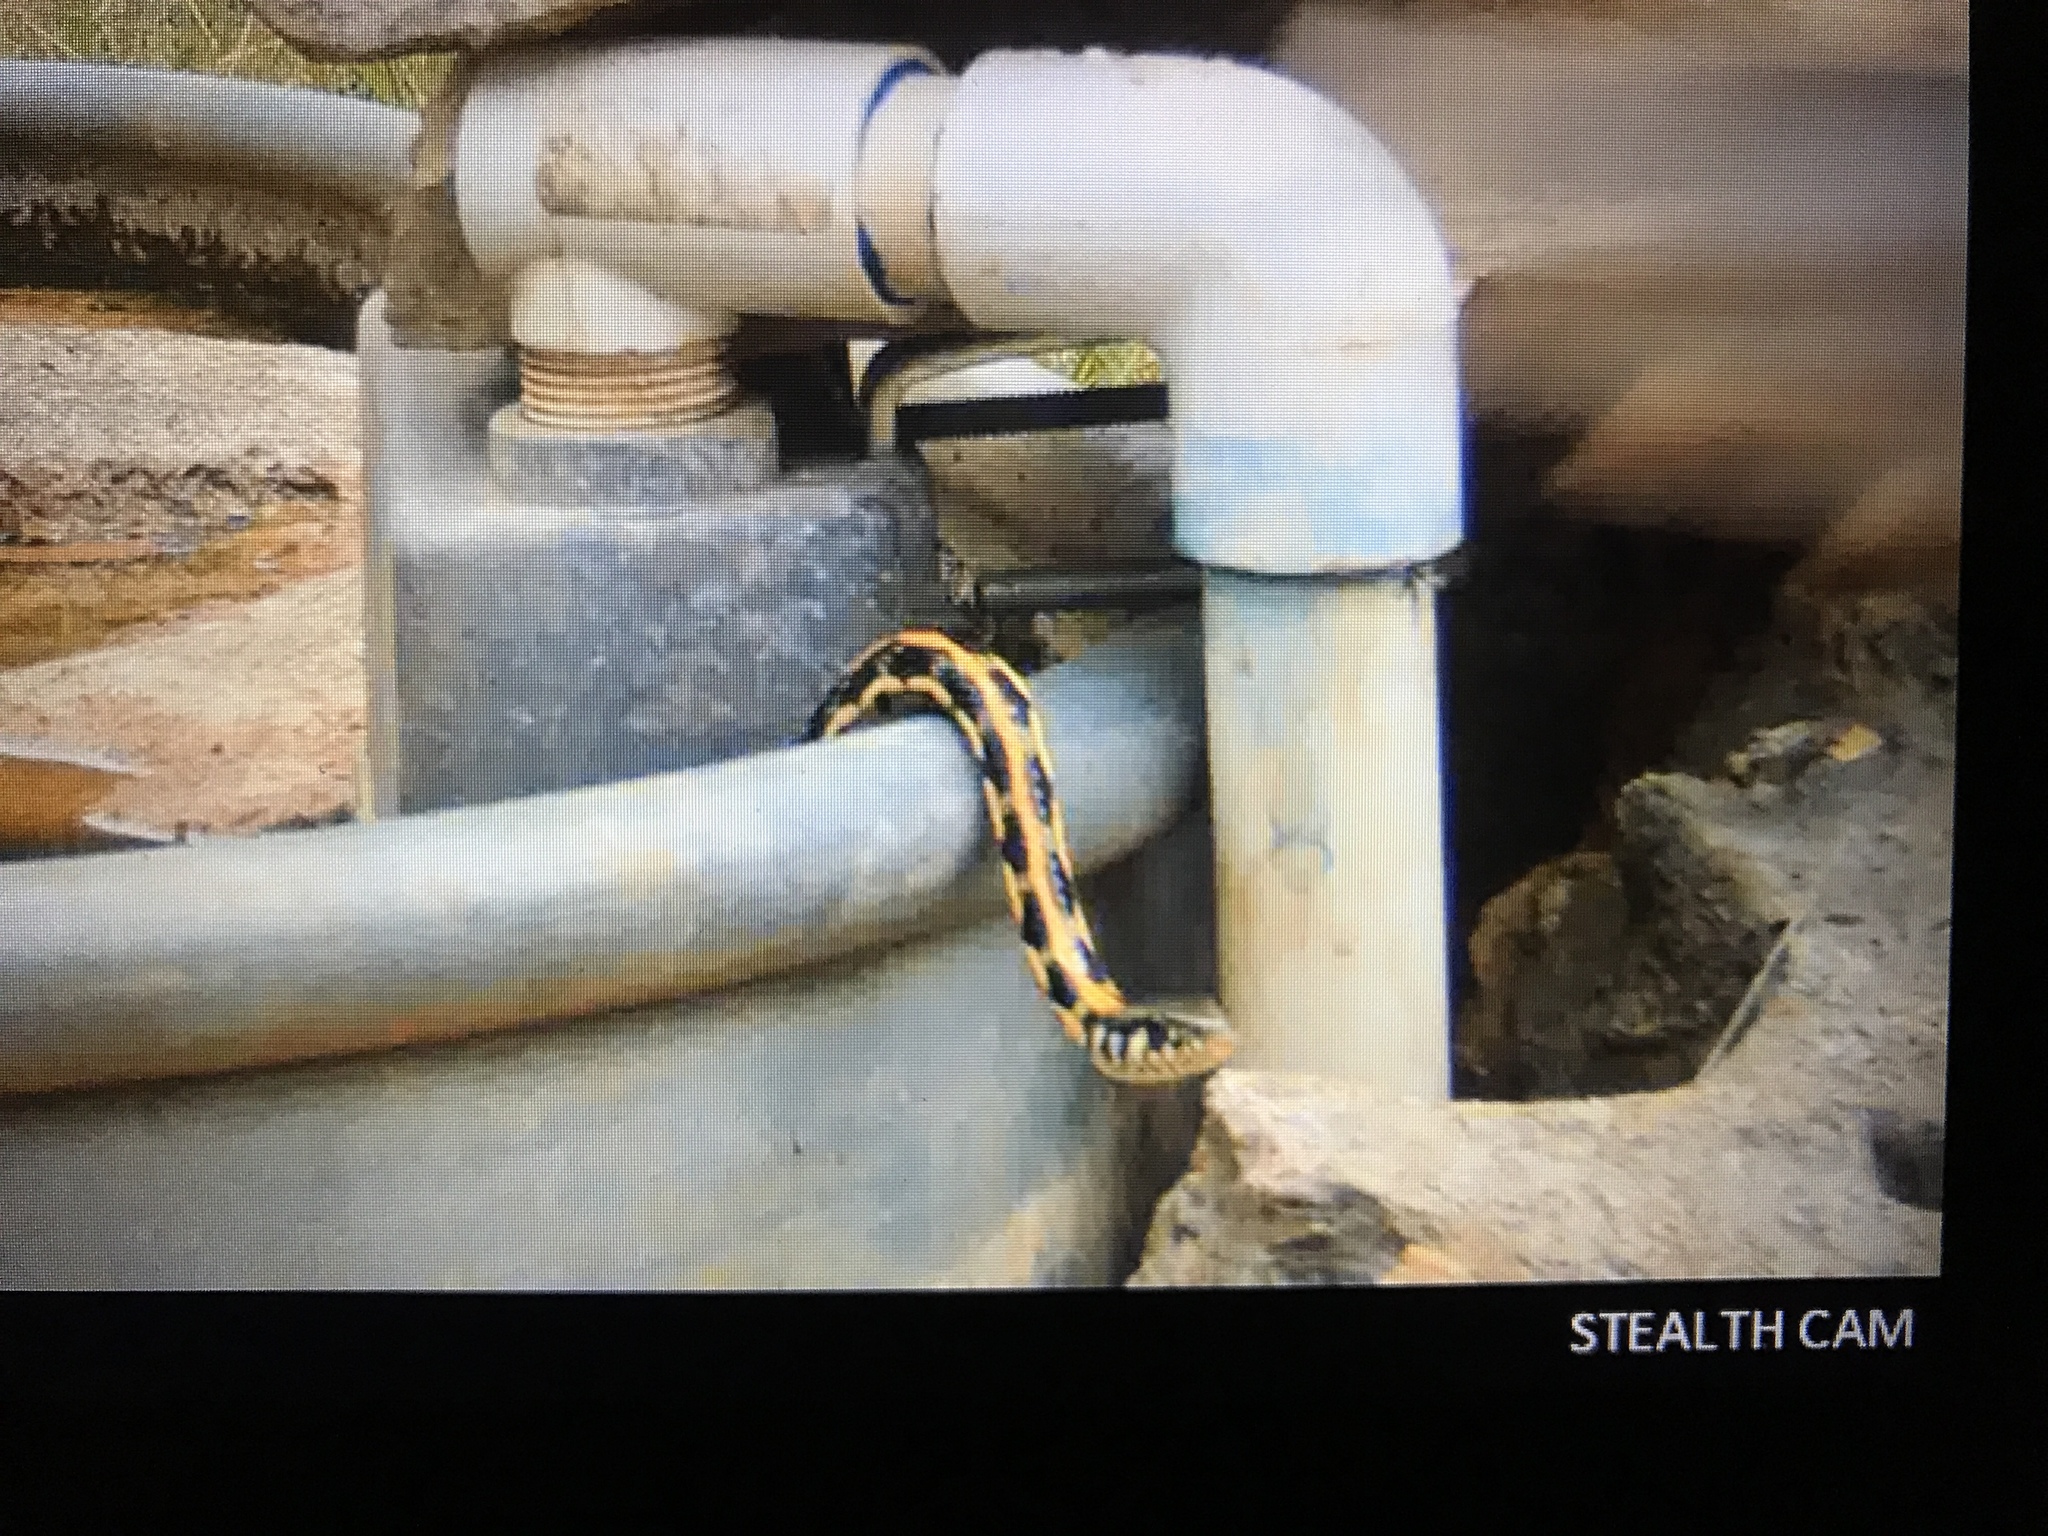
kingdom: Animalia
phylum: Chordata
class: Squamata
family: Colubridae
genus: Thamnophis
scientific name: Thamnophis cyrtopsis
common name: Black-necked gartersnake
